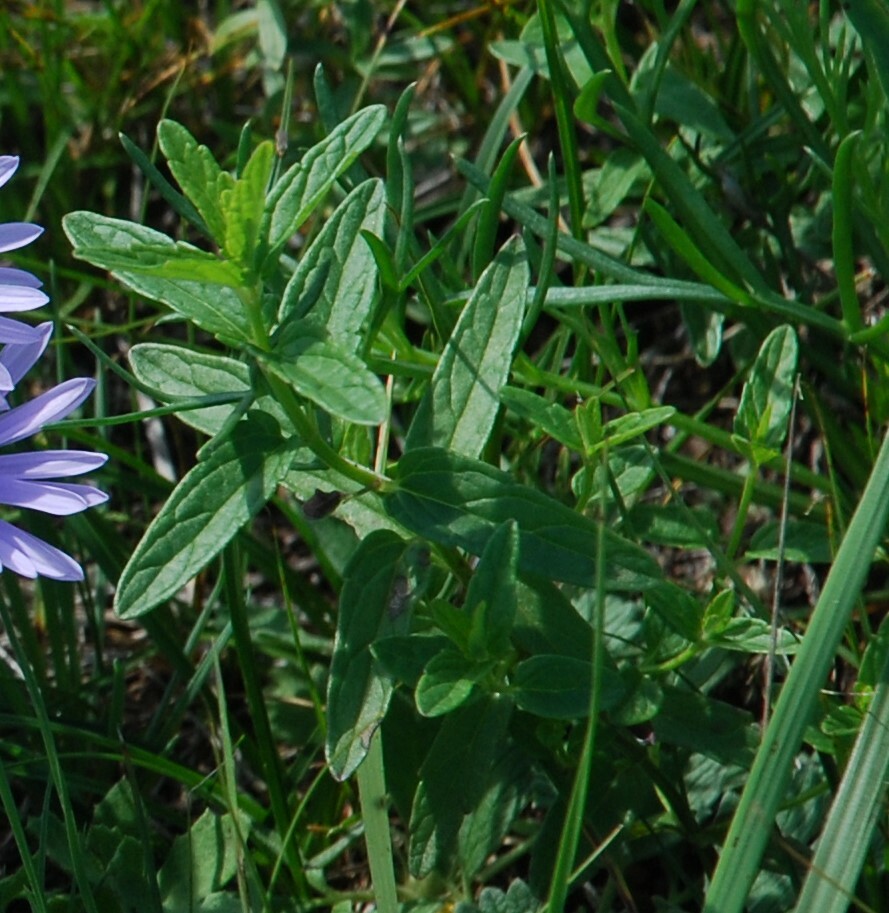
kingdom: Plantae
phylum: Tracheophyta
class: Magnoliopsida
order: Lamiales
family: Lamiaceae
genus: Scutellaria
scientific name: Scutellaria scordiifolia
